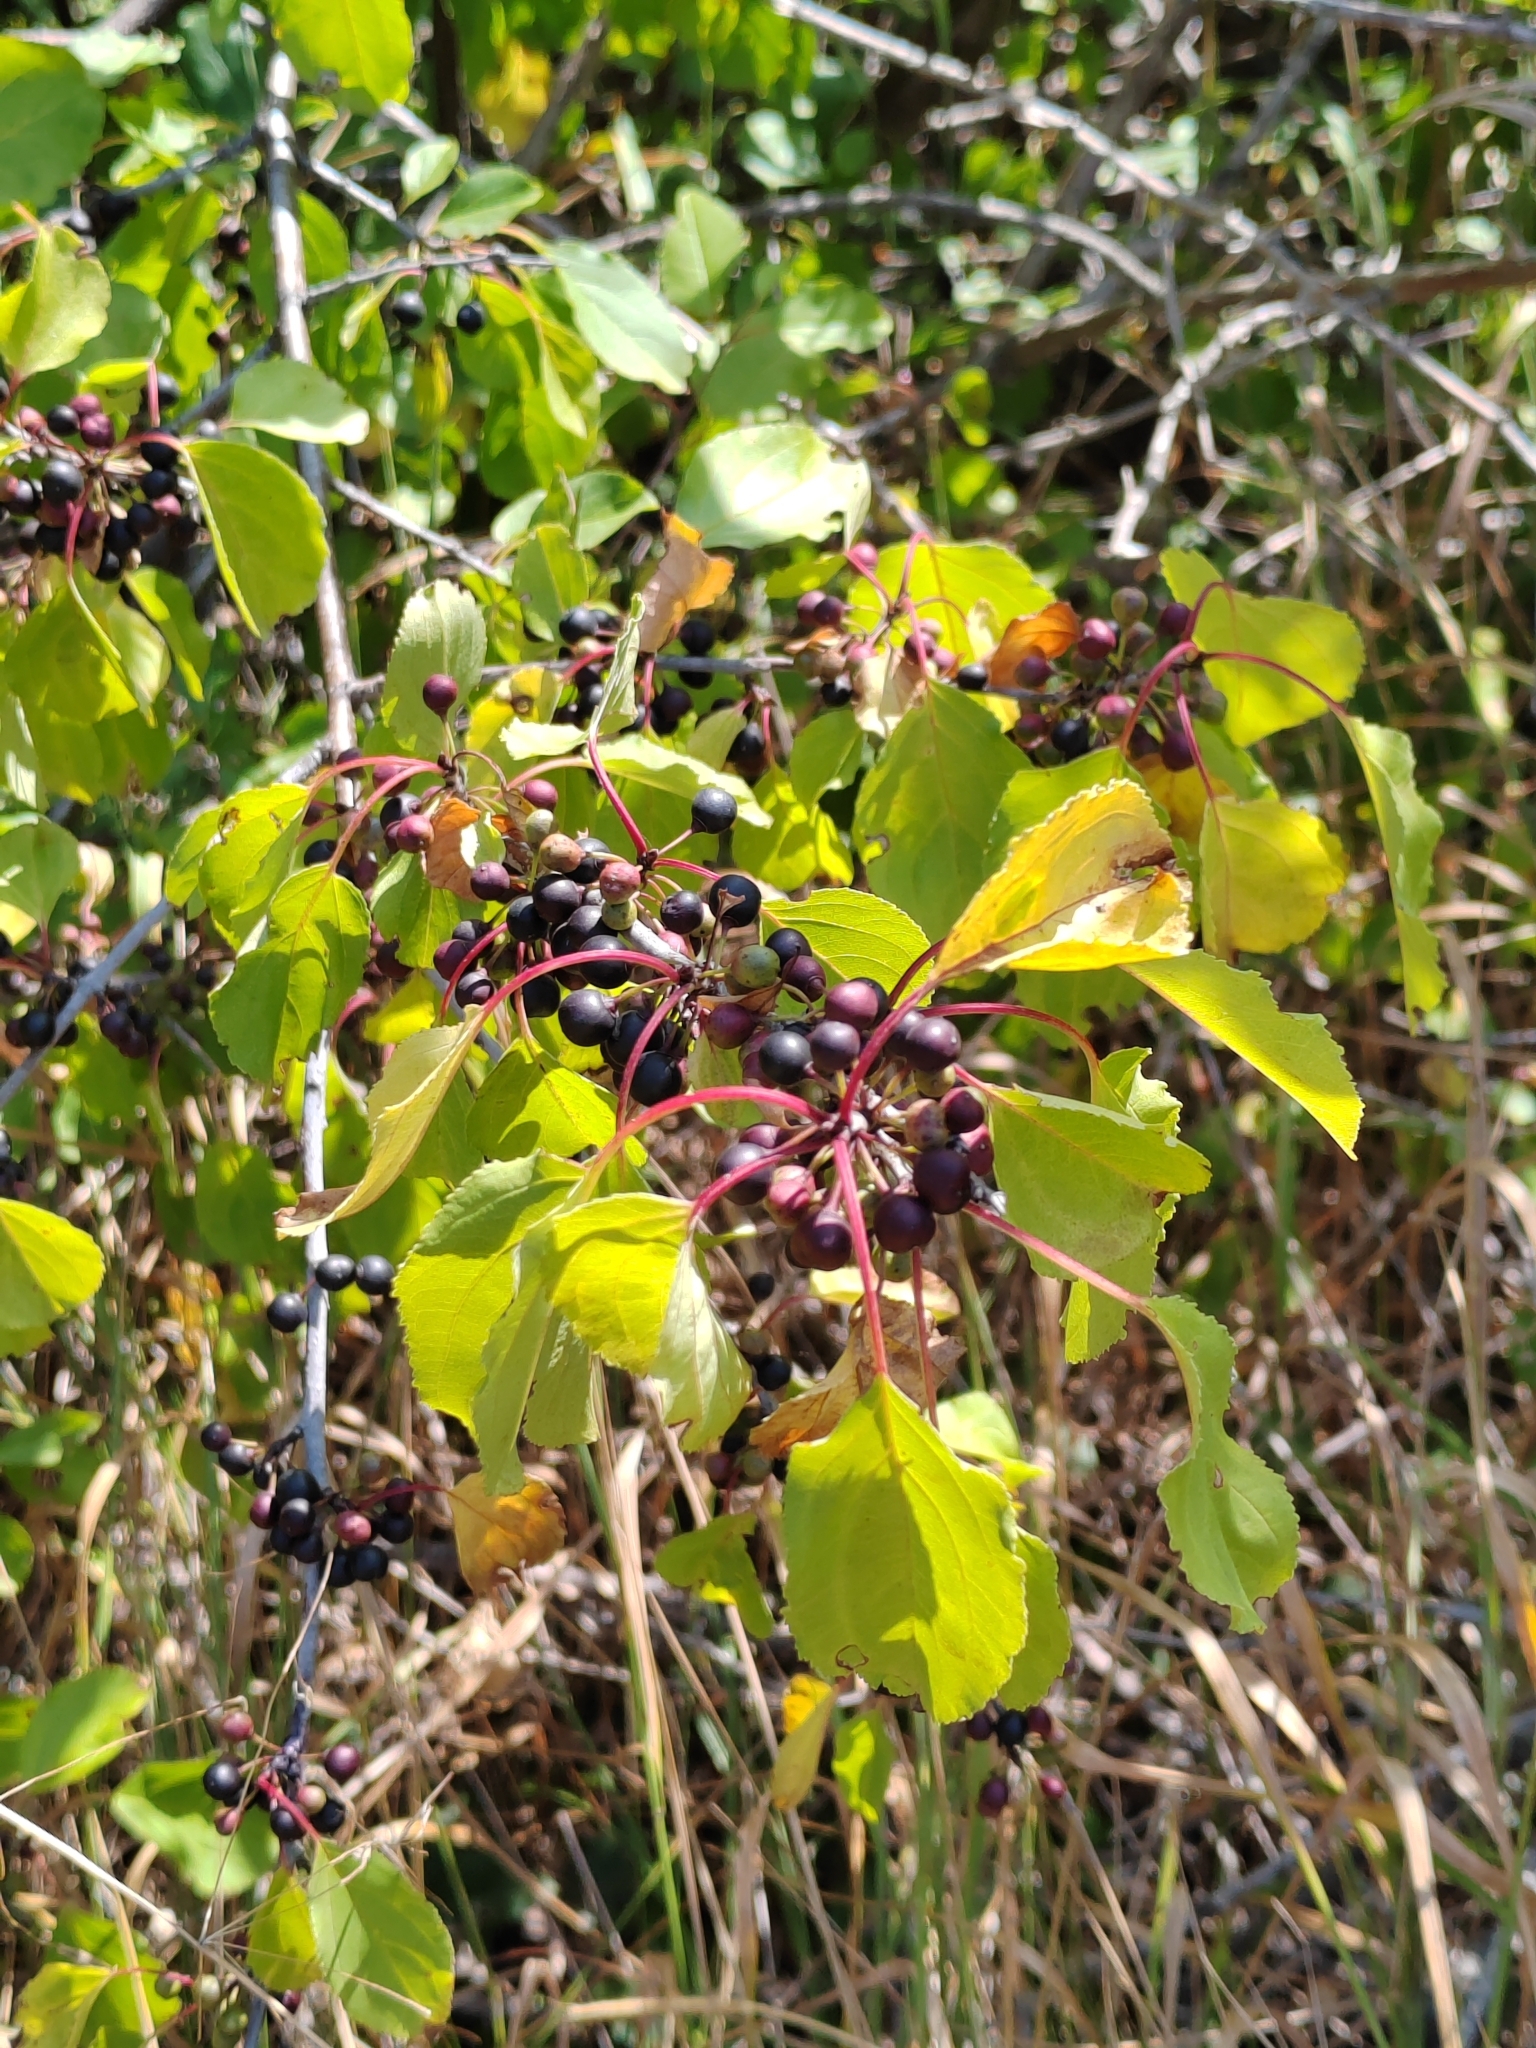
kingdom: Plantae
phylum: Tracheophyta
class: Magnoliopsida
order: Rosales
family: Rhamnaceae
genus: Rhamnus
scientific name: Rhamnus cathartica
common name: Common buckthorn
